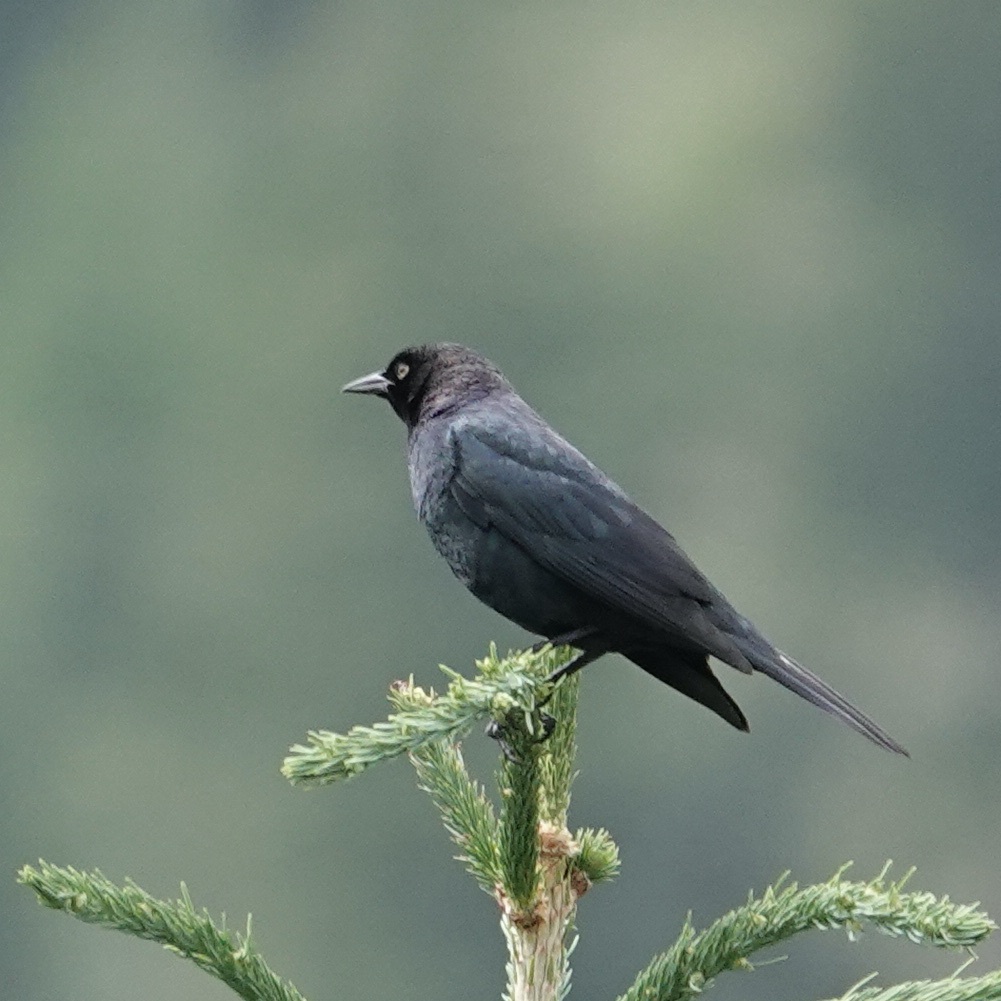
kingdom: Animalia
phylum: Chordata
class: Aves
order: Passeriformes
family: Icteridae
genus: Euphagus
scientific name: Euphagus cyanocephalus
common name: Brewer's blackbird
